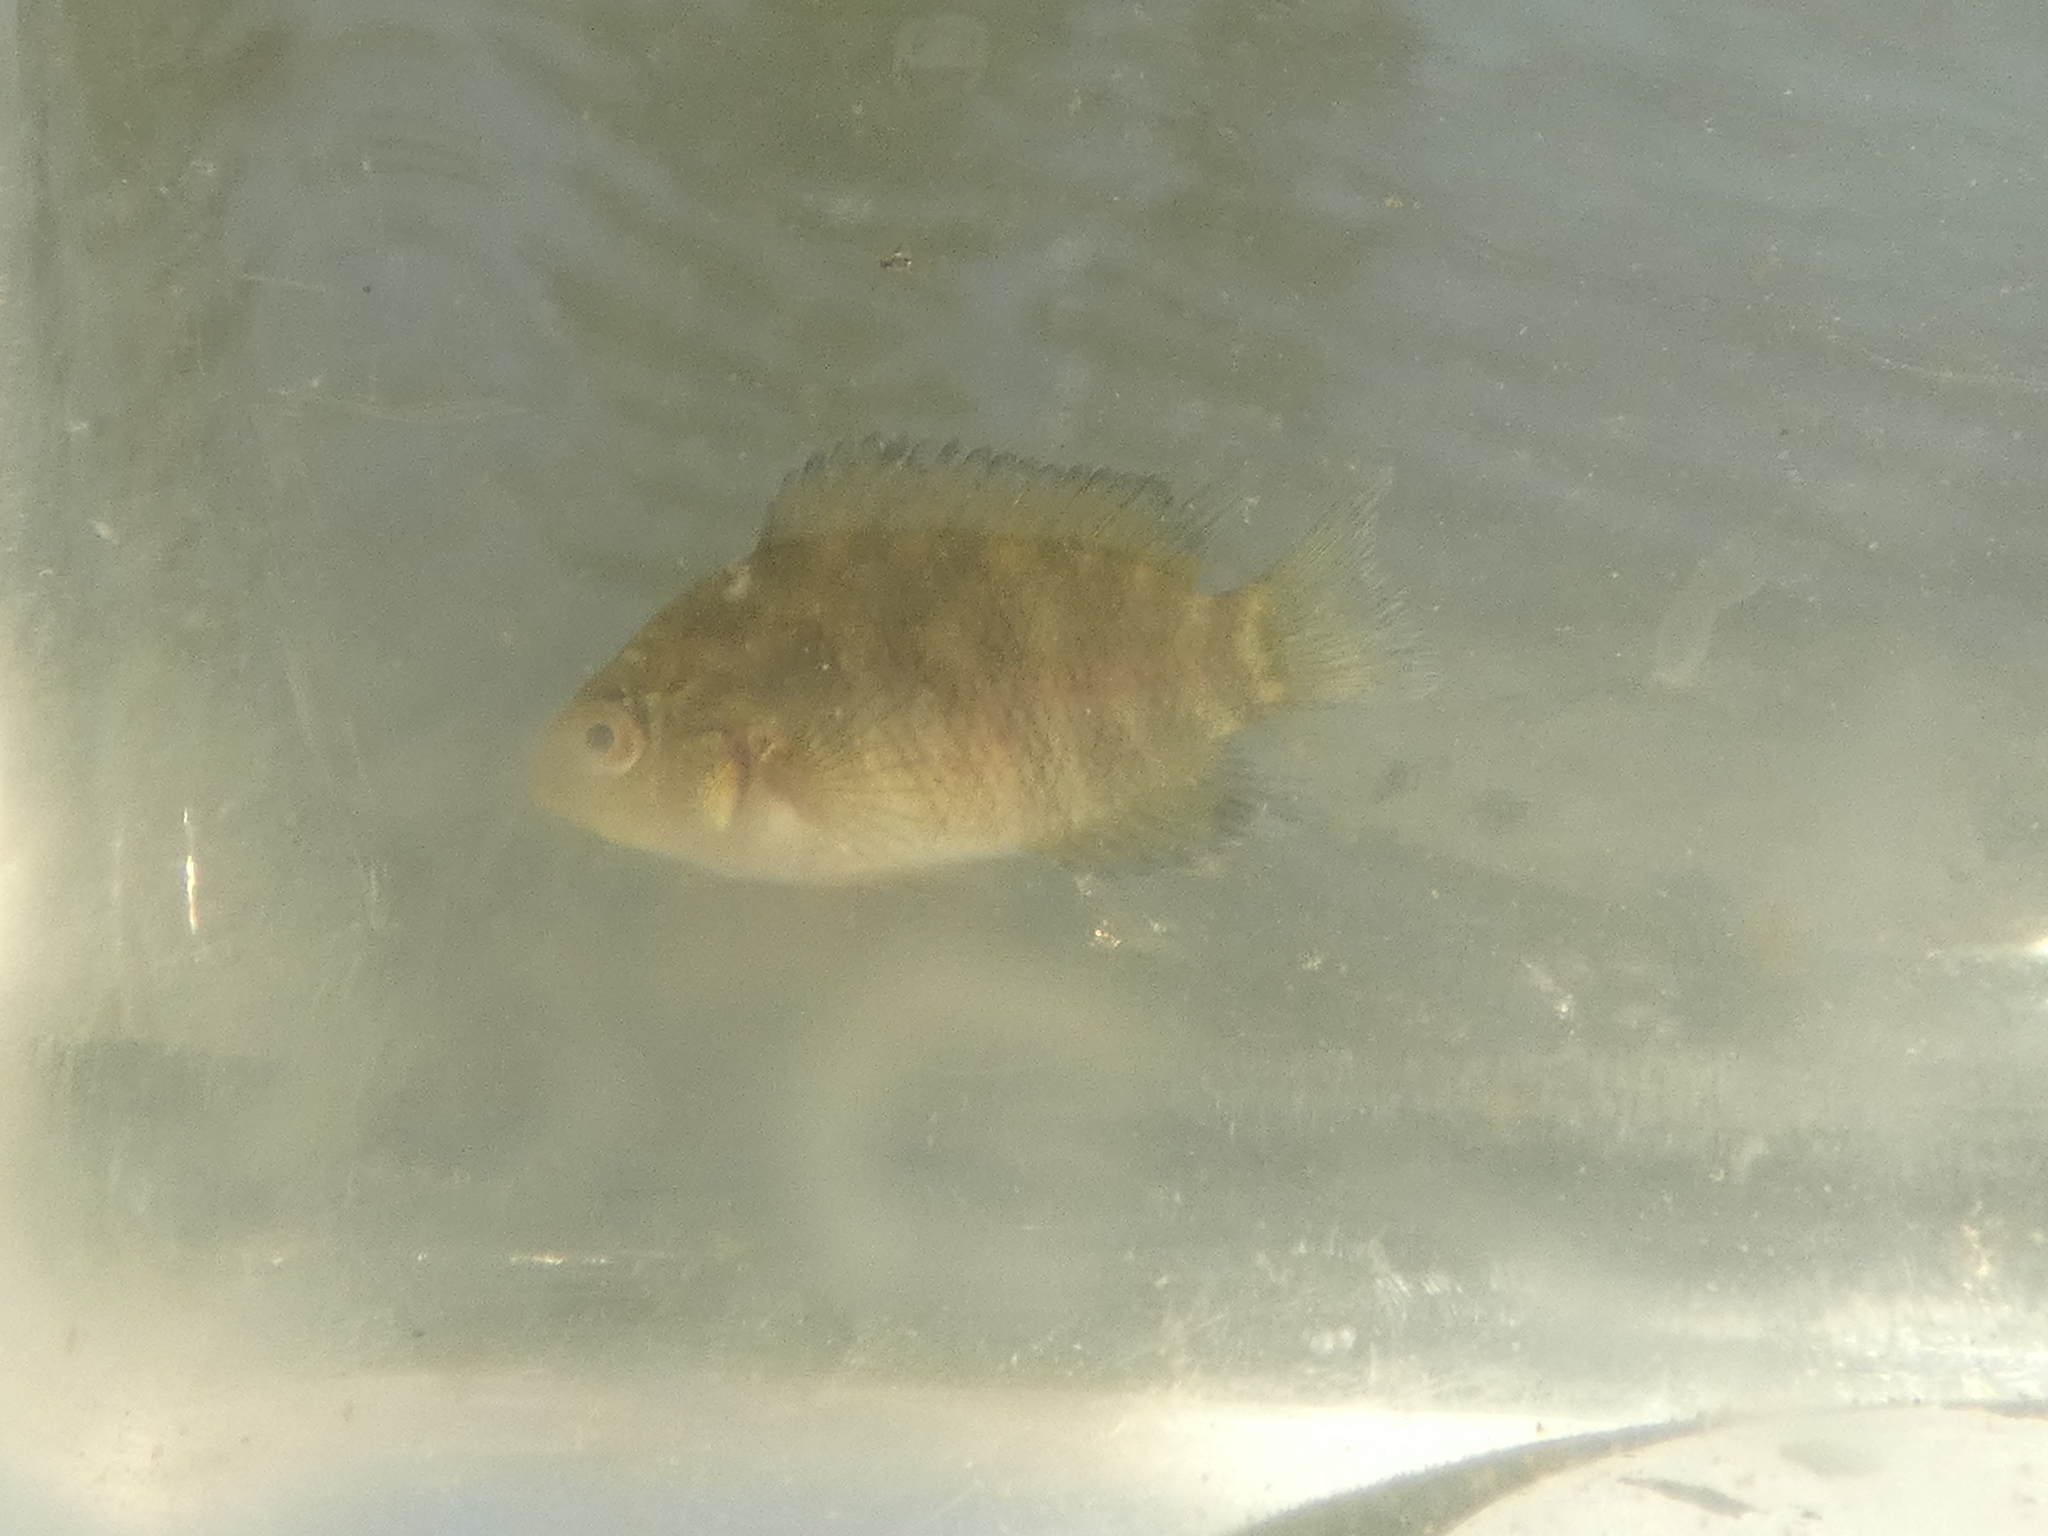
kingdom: Animalia
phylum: Chordata
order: Perciformes
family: Cichlidae
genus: Australoheros
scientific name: Australoheros facetus
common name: Chameleon cichlid
